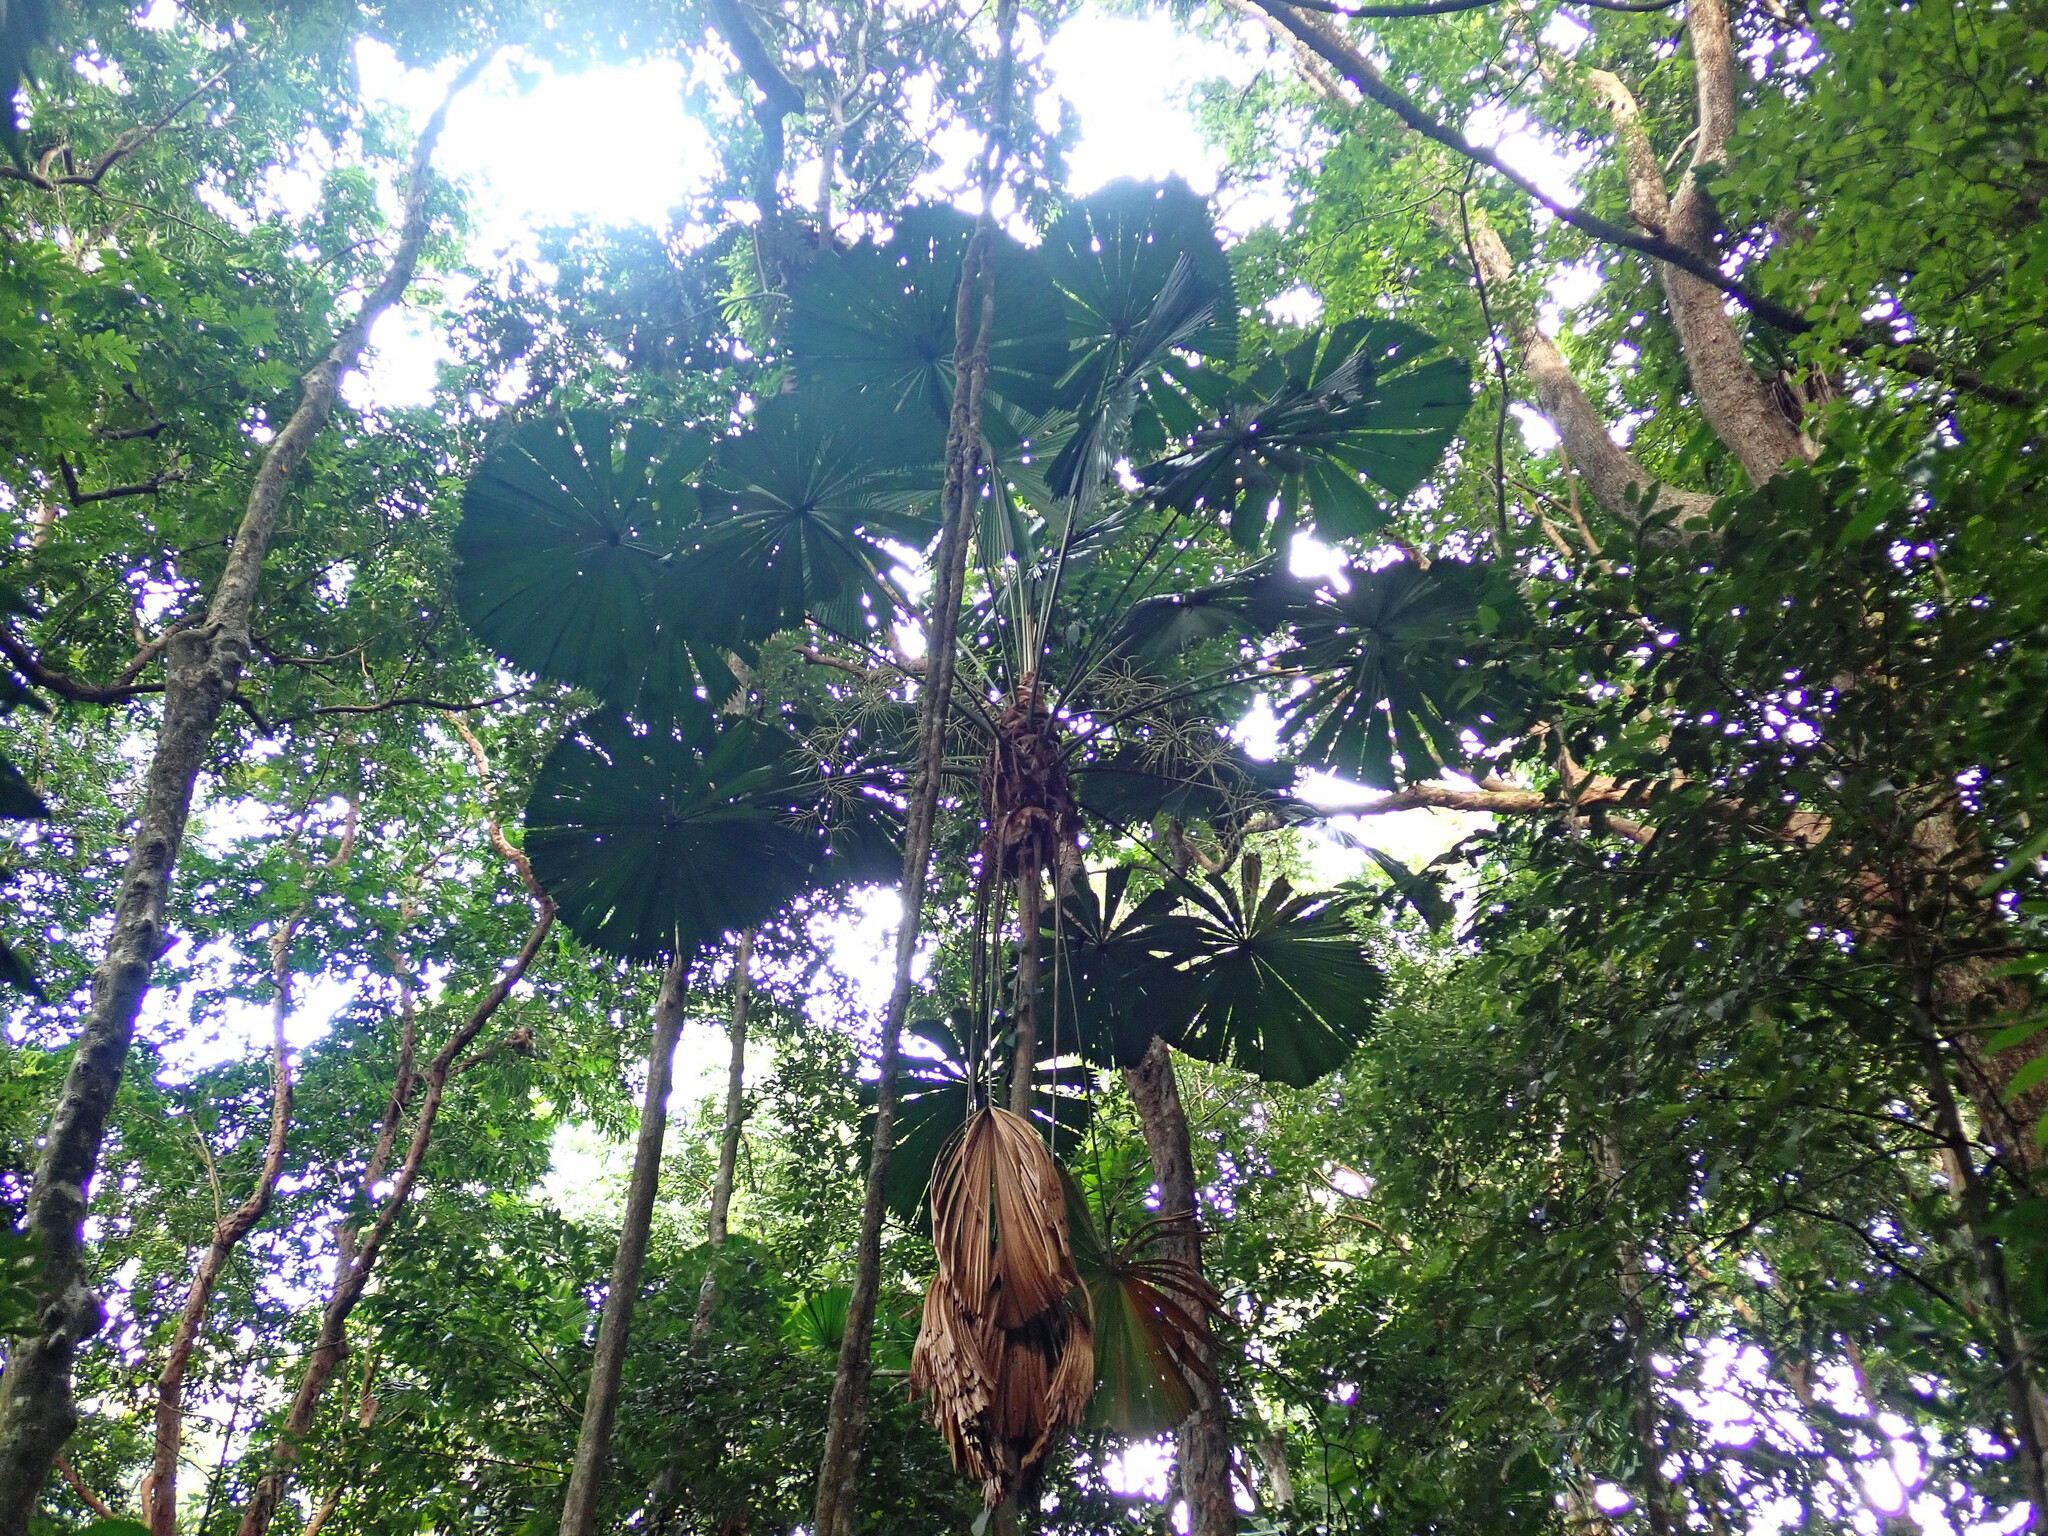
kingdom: Plantae
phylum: Tracheophyta
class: Liliopsida
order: Arecales
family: Arecaceae
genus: Licuala
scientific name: Licuala ramsayi
